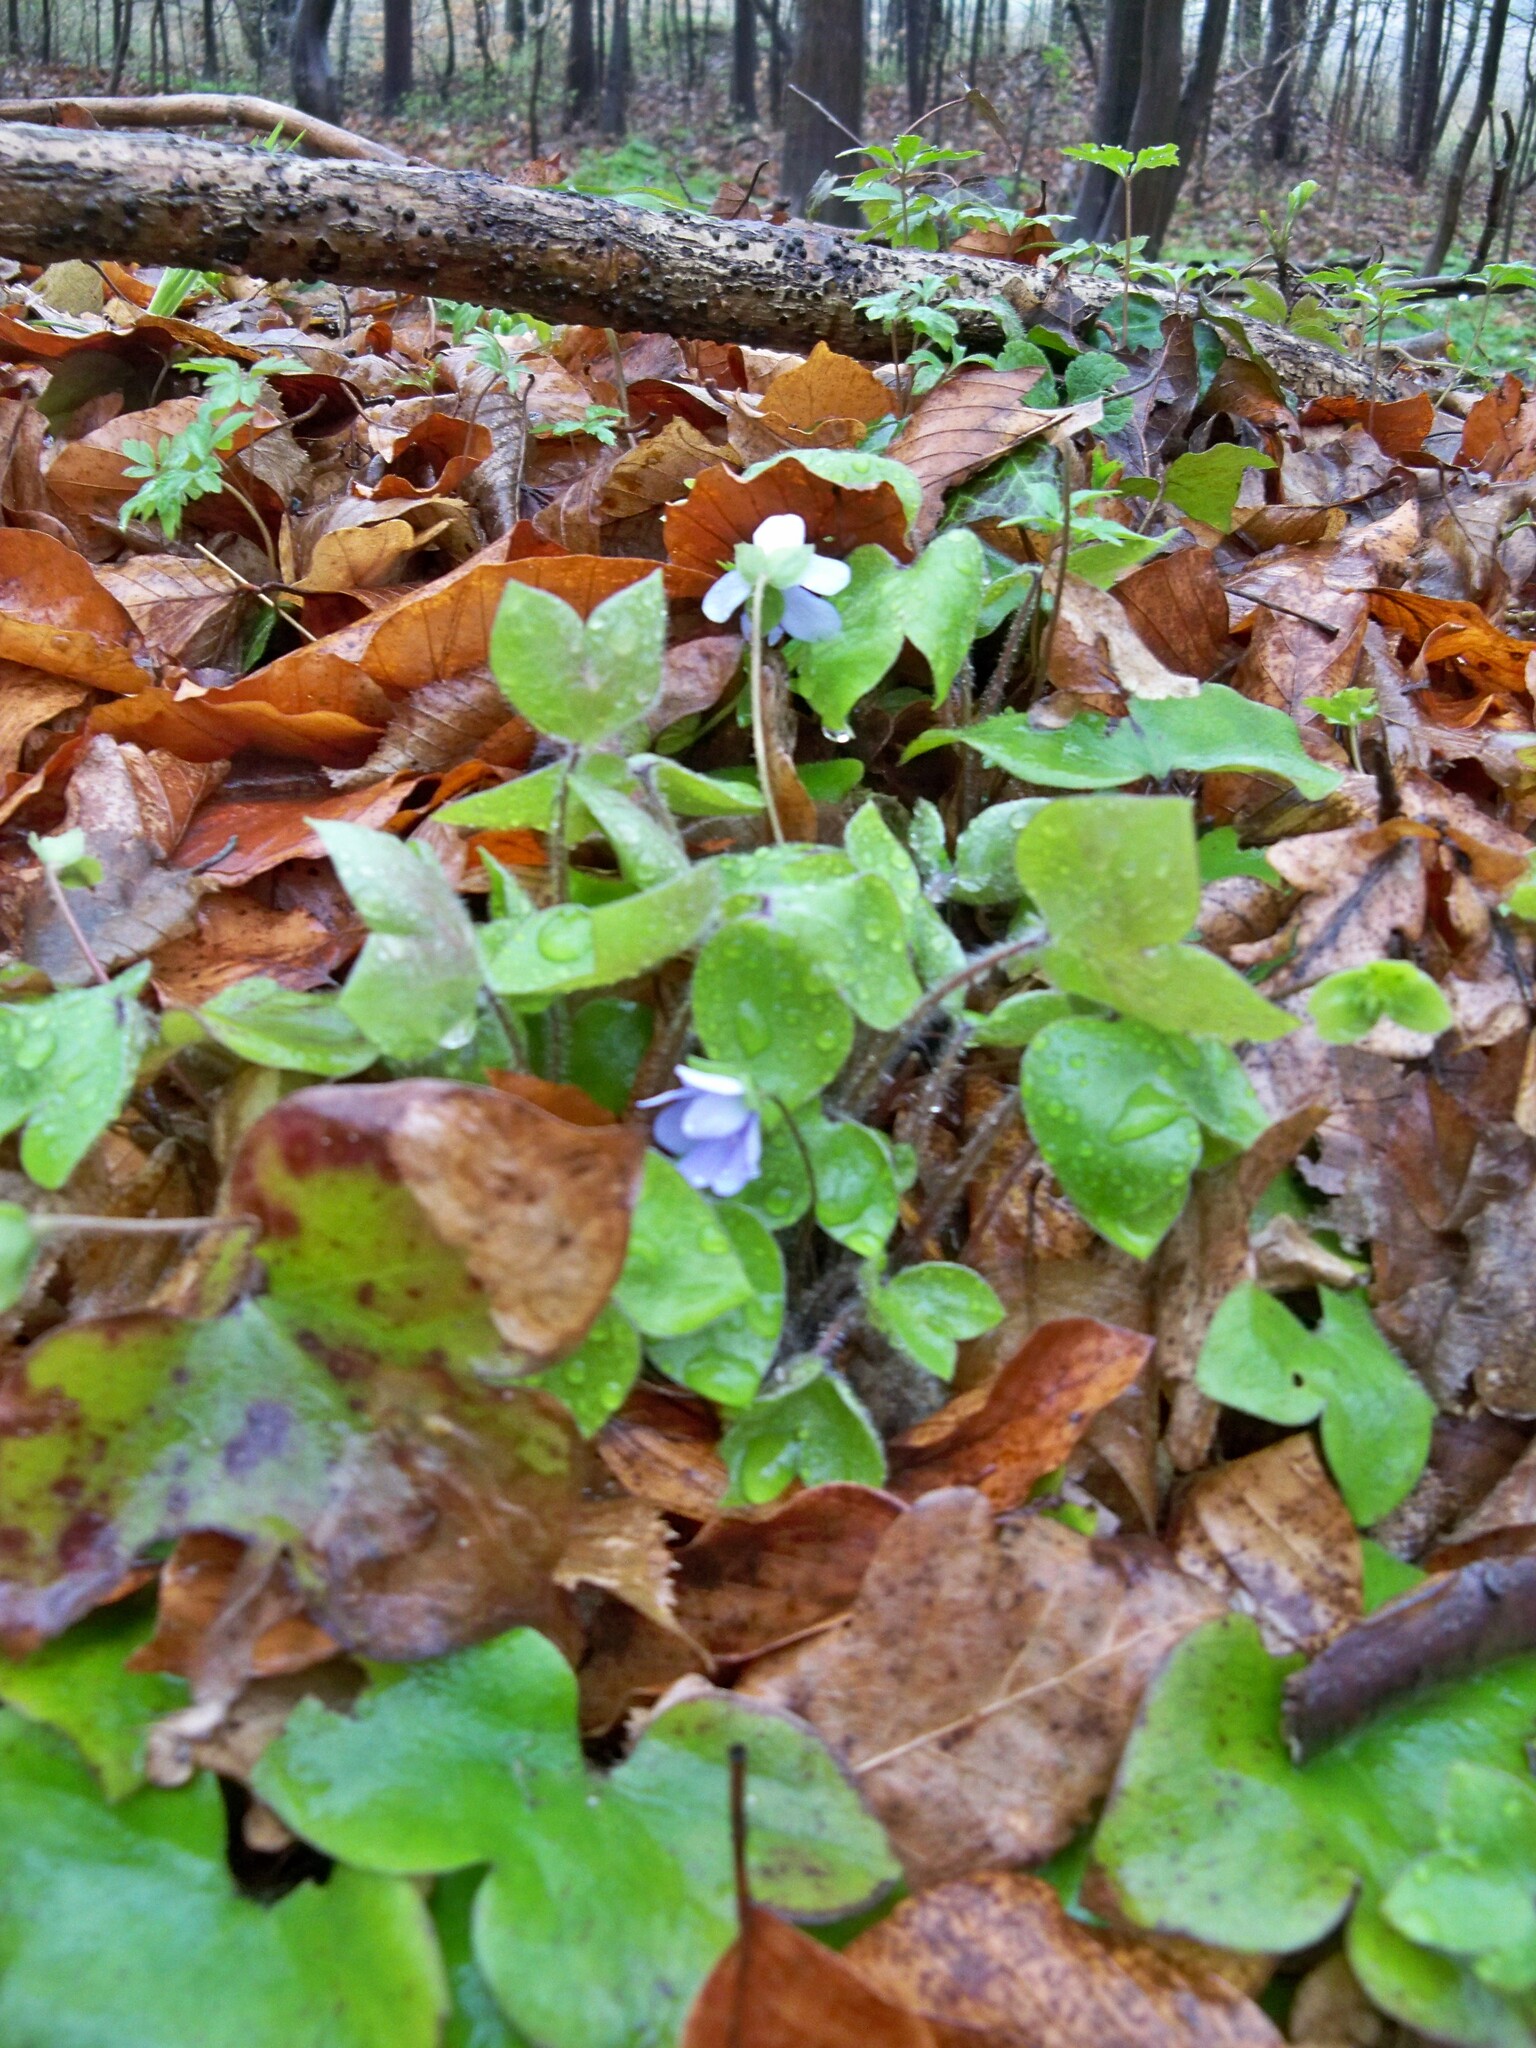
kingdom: Plantae
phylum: Tracheophyta
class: Magnoliopsida
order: Ranunculales
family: Ranunculaceae
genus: Hepatica
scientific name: Hepatica nobilis
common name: Liverleaf
